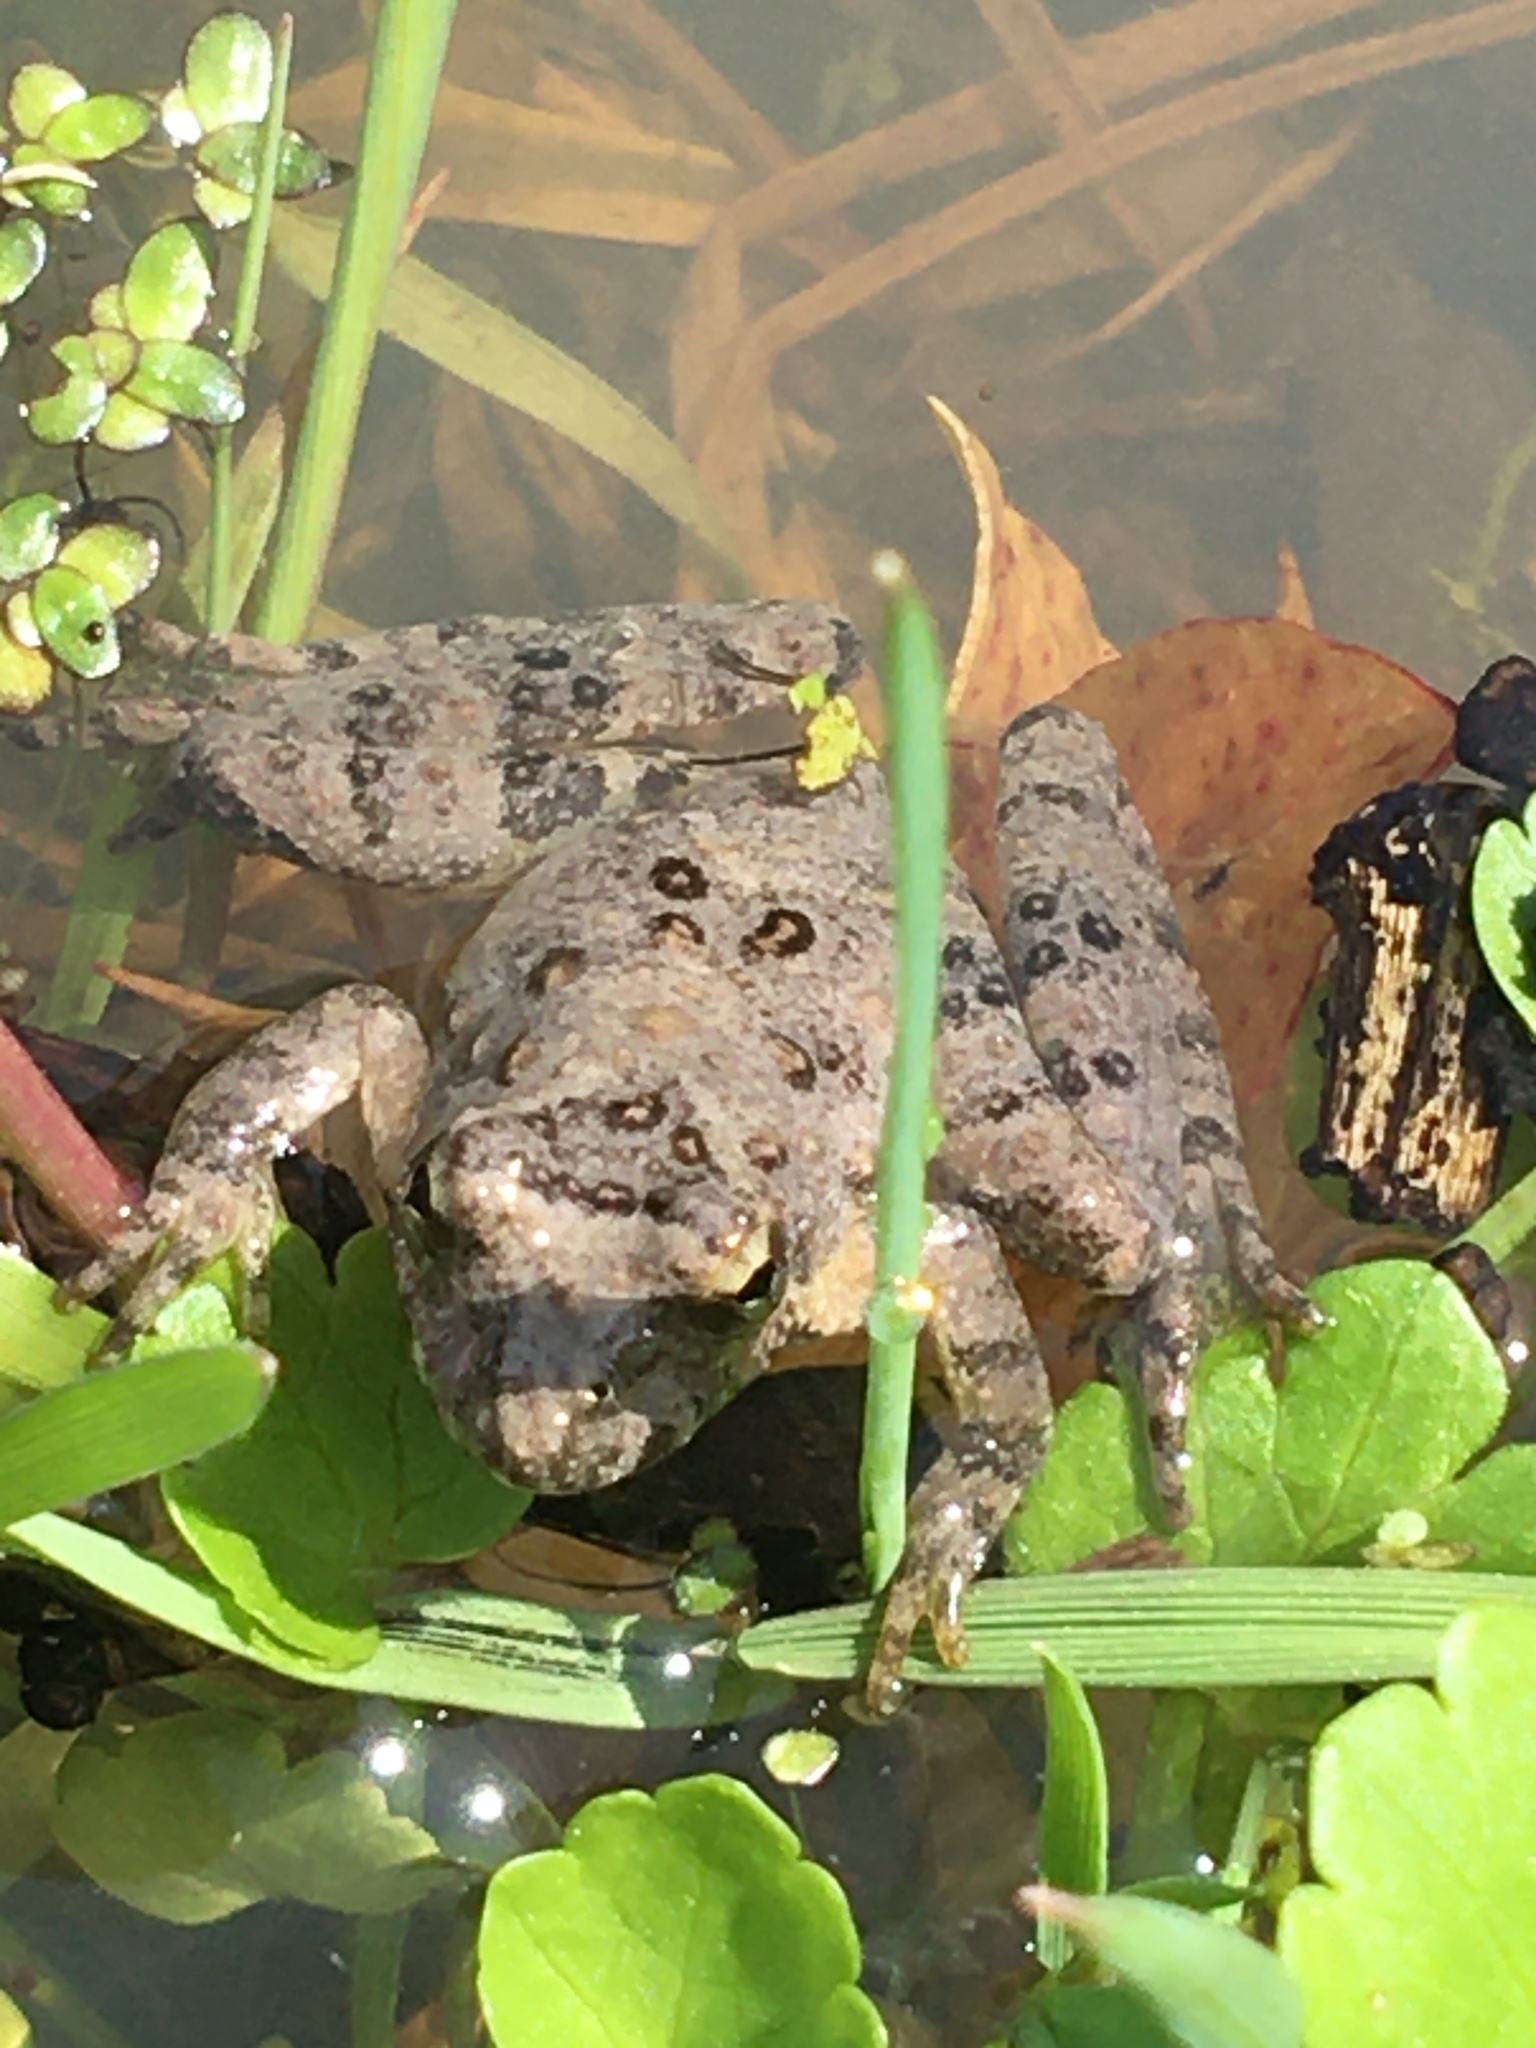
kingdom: Animalia
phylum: Chordata
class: Amphibia
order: Anura
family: Hylidae
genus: Acris
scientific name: Acris blanchardi
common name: Blanchard's cricket frog
